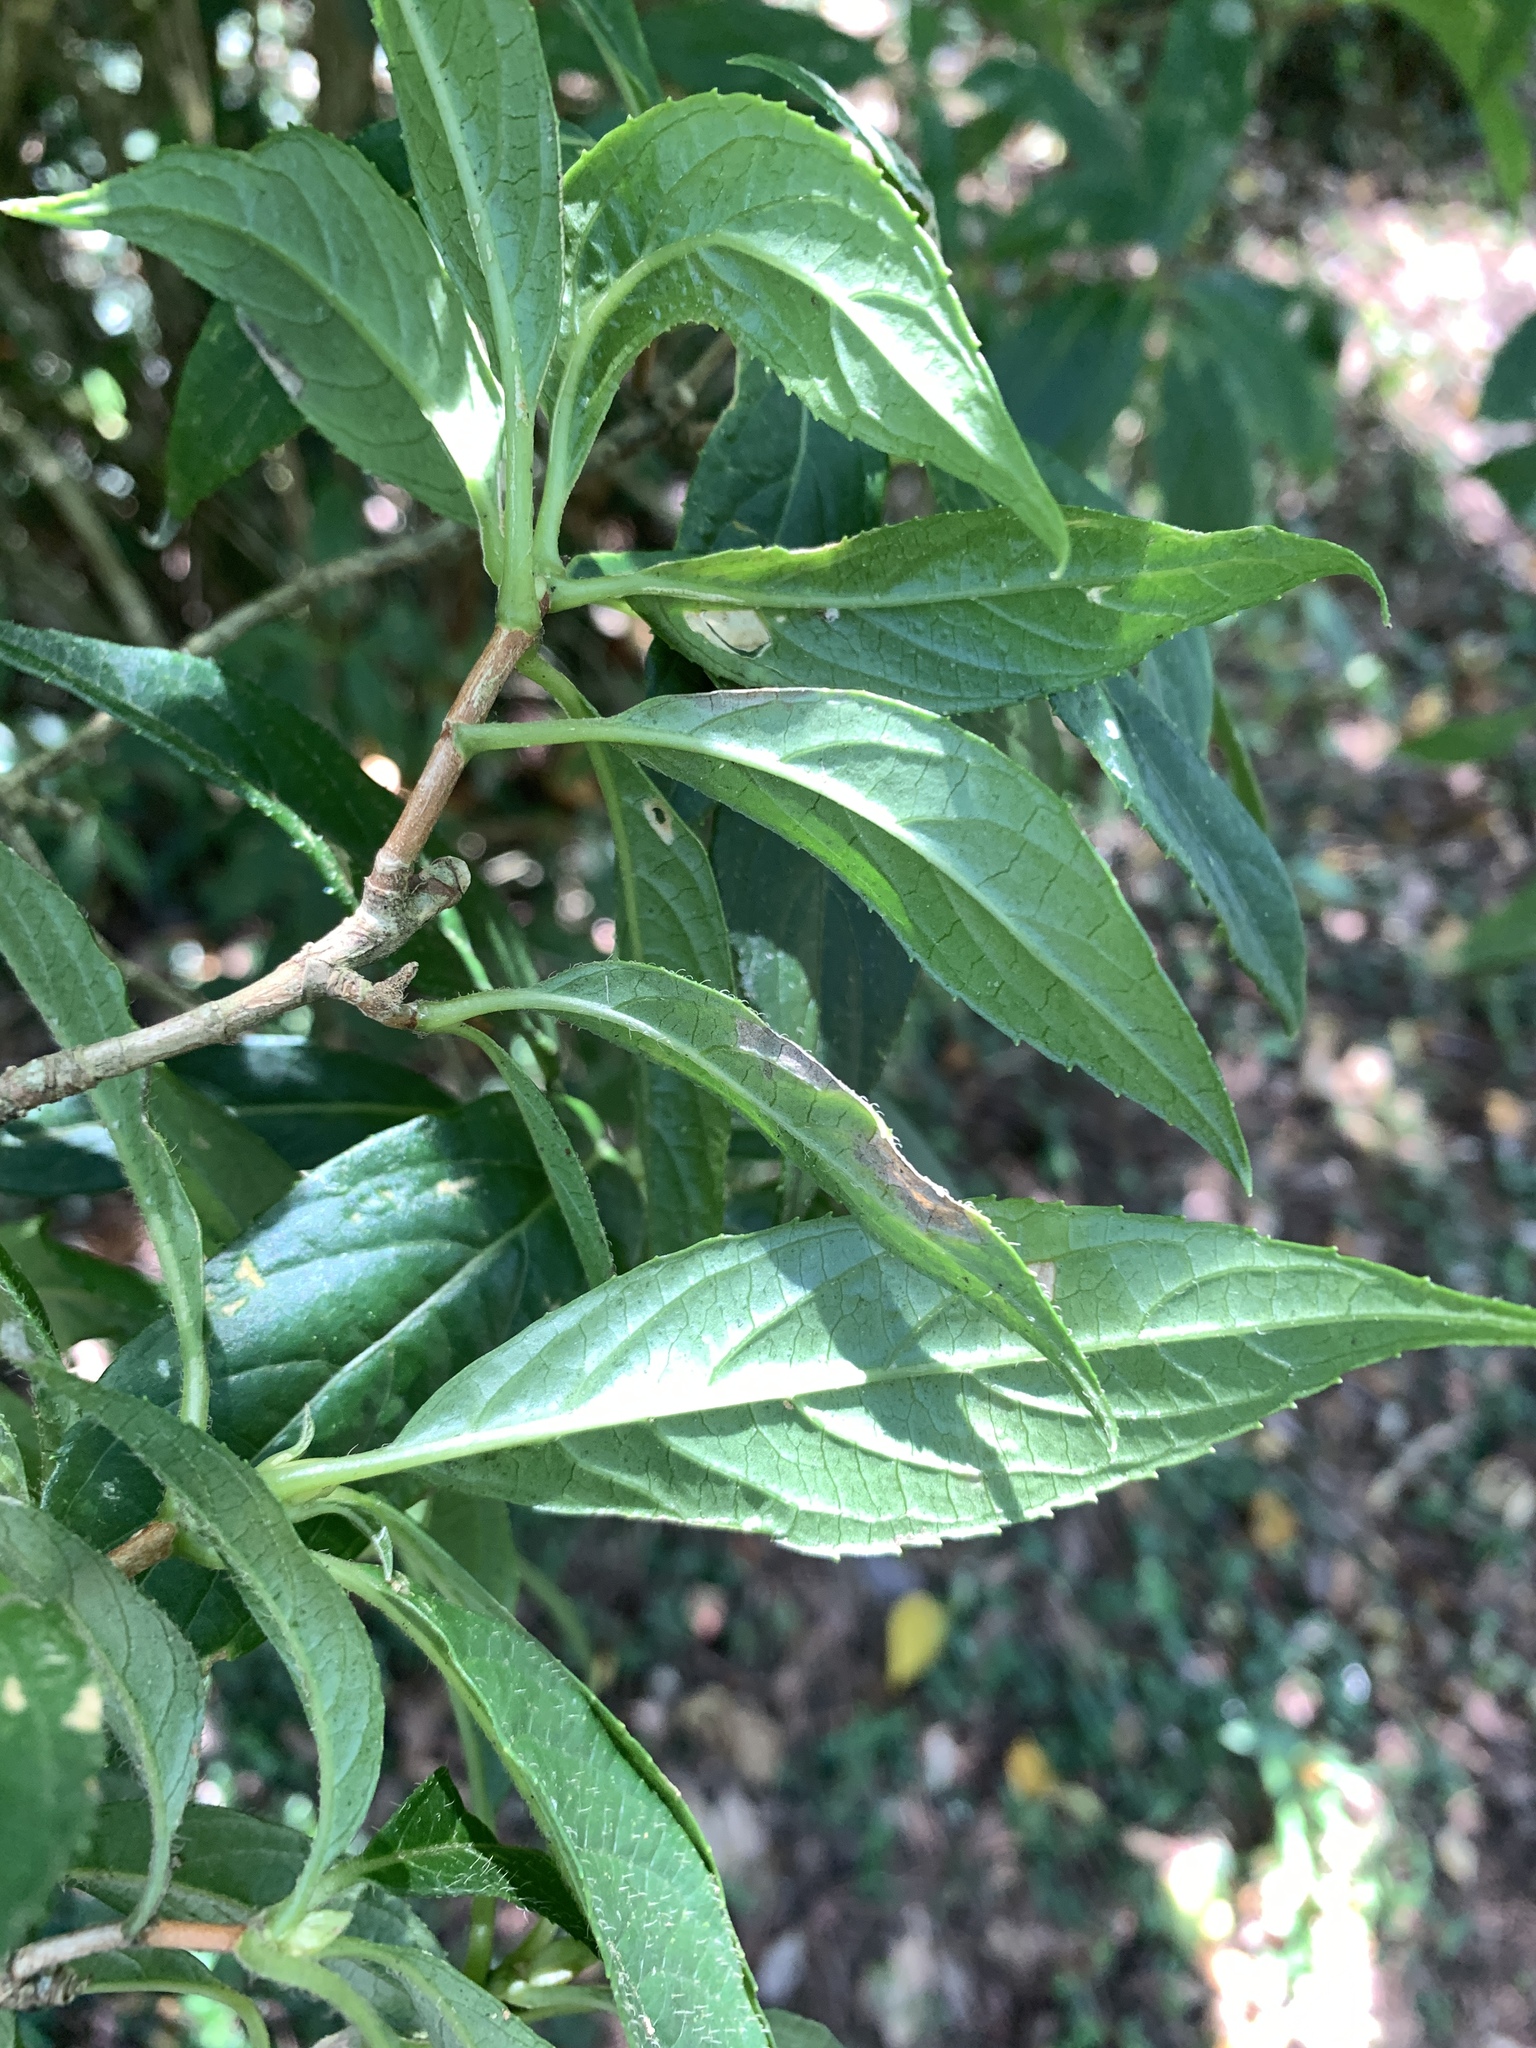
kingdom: Plantae
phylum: Tracheophyta
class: Magnoliopsida
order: Cornales
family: Hydrangeaceae
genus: Hydrangea
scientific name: Hydrangea chinensis
